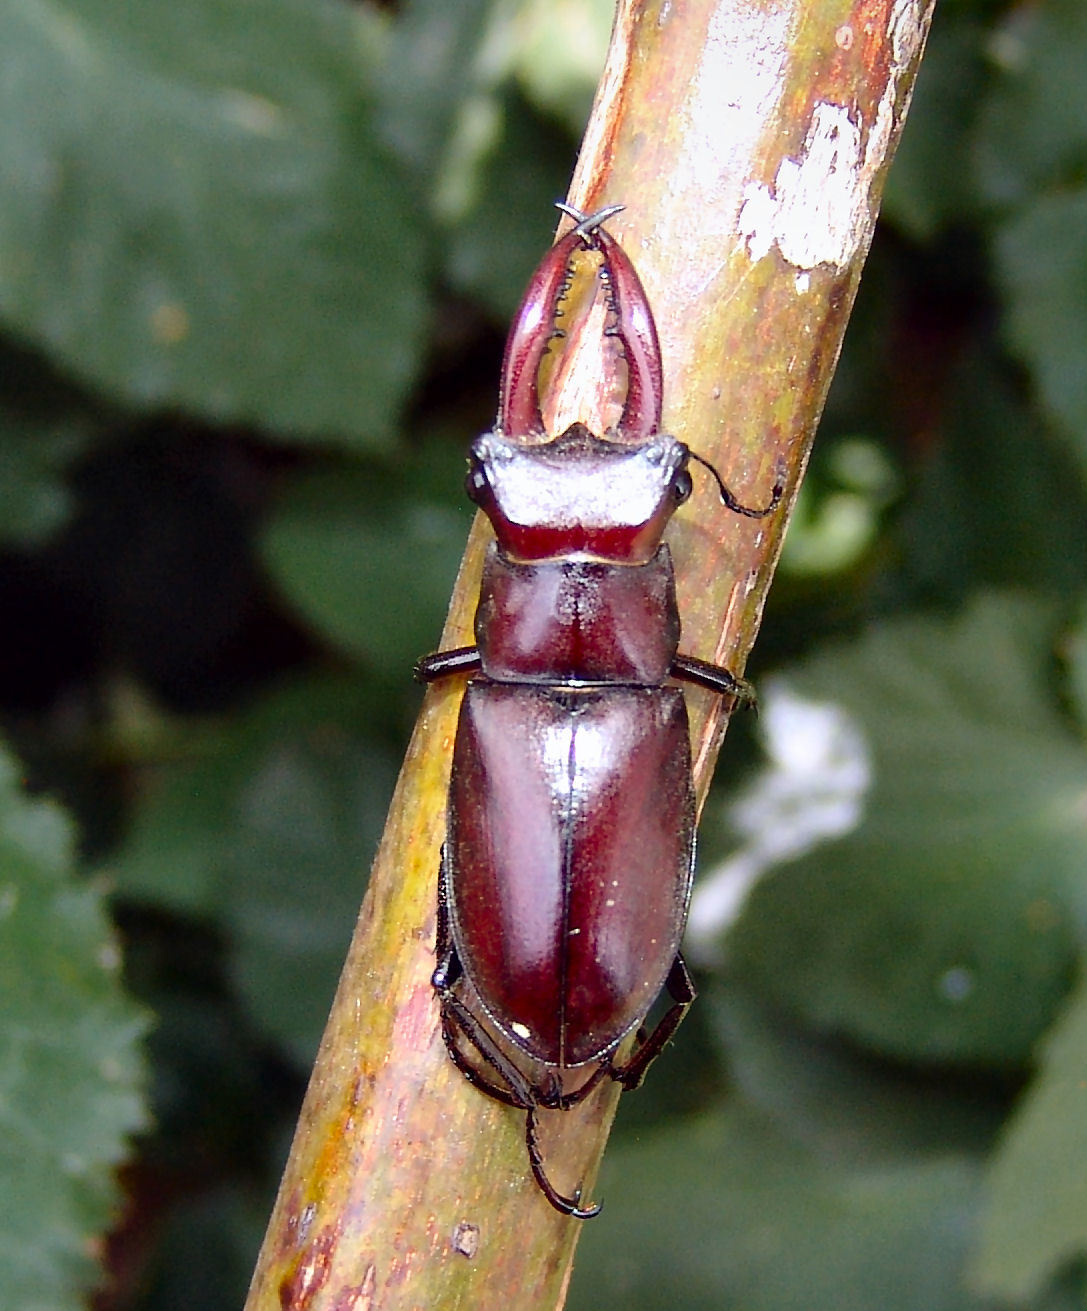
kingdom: Animalia
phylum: Arthropoda
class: Insecta
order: Coleoptera
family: Lucanidae
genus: Lucanus
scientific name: Lucanus elaphus
